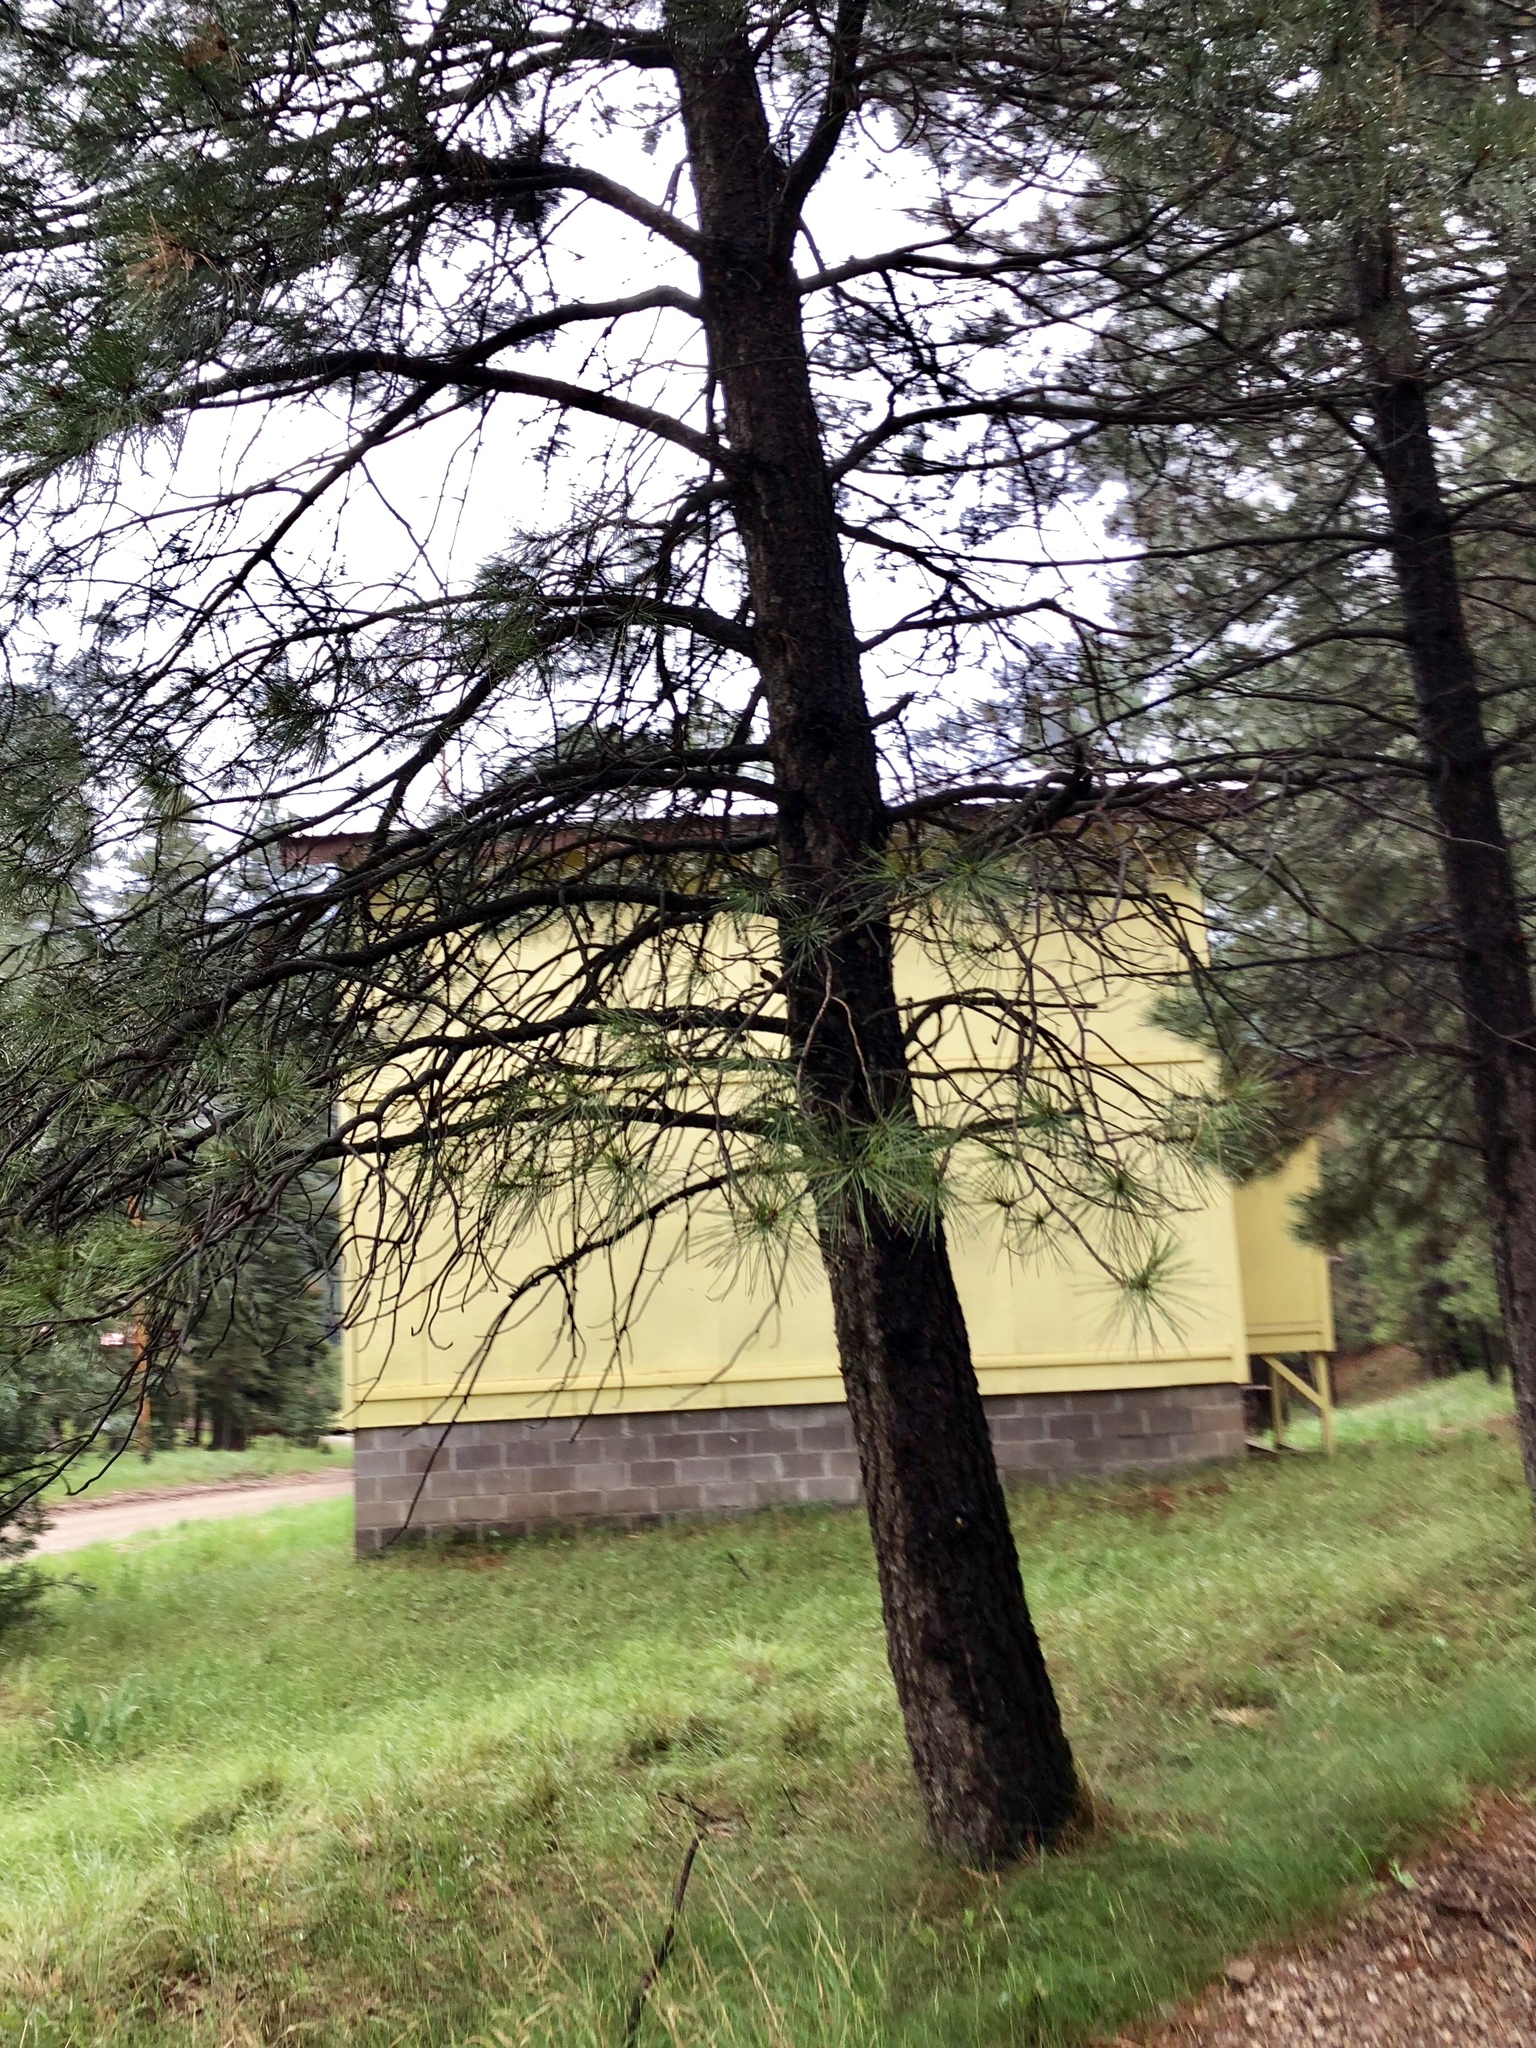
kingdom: Plantae
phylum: Tracheophyta
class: Pinopsida
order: Pinales
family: Pinaceae
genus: Pinus
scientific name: Pinus ponderosa
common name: Western yellow-pine
